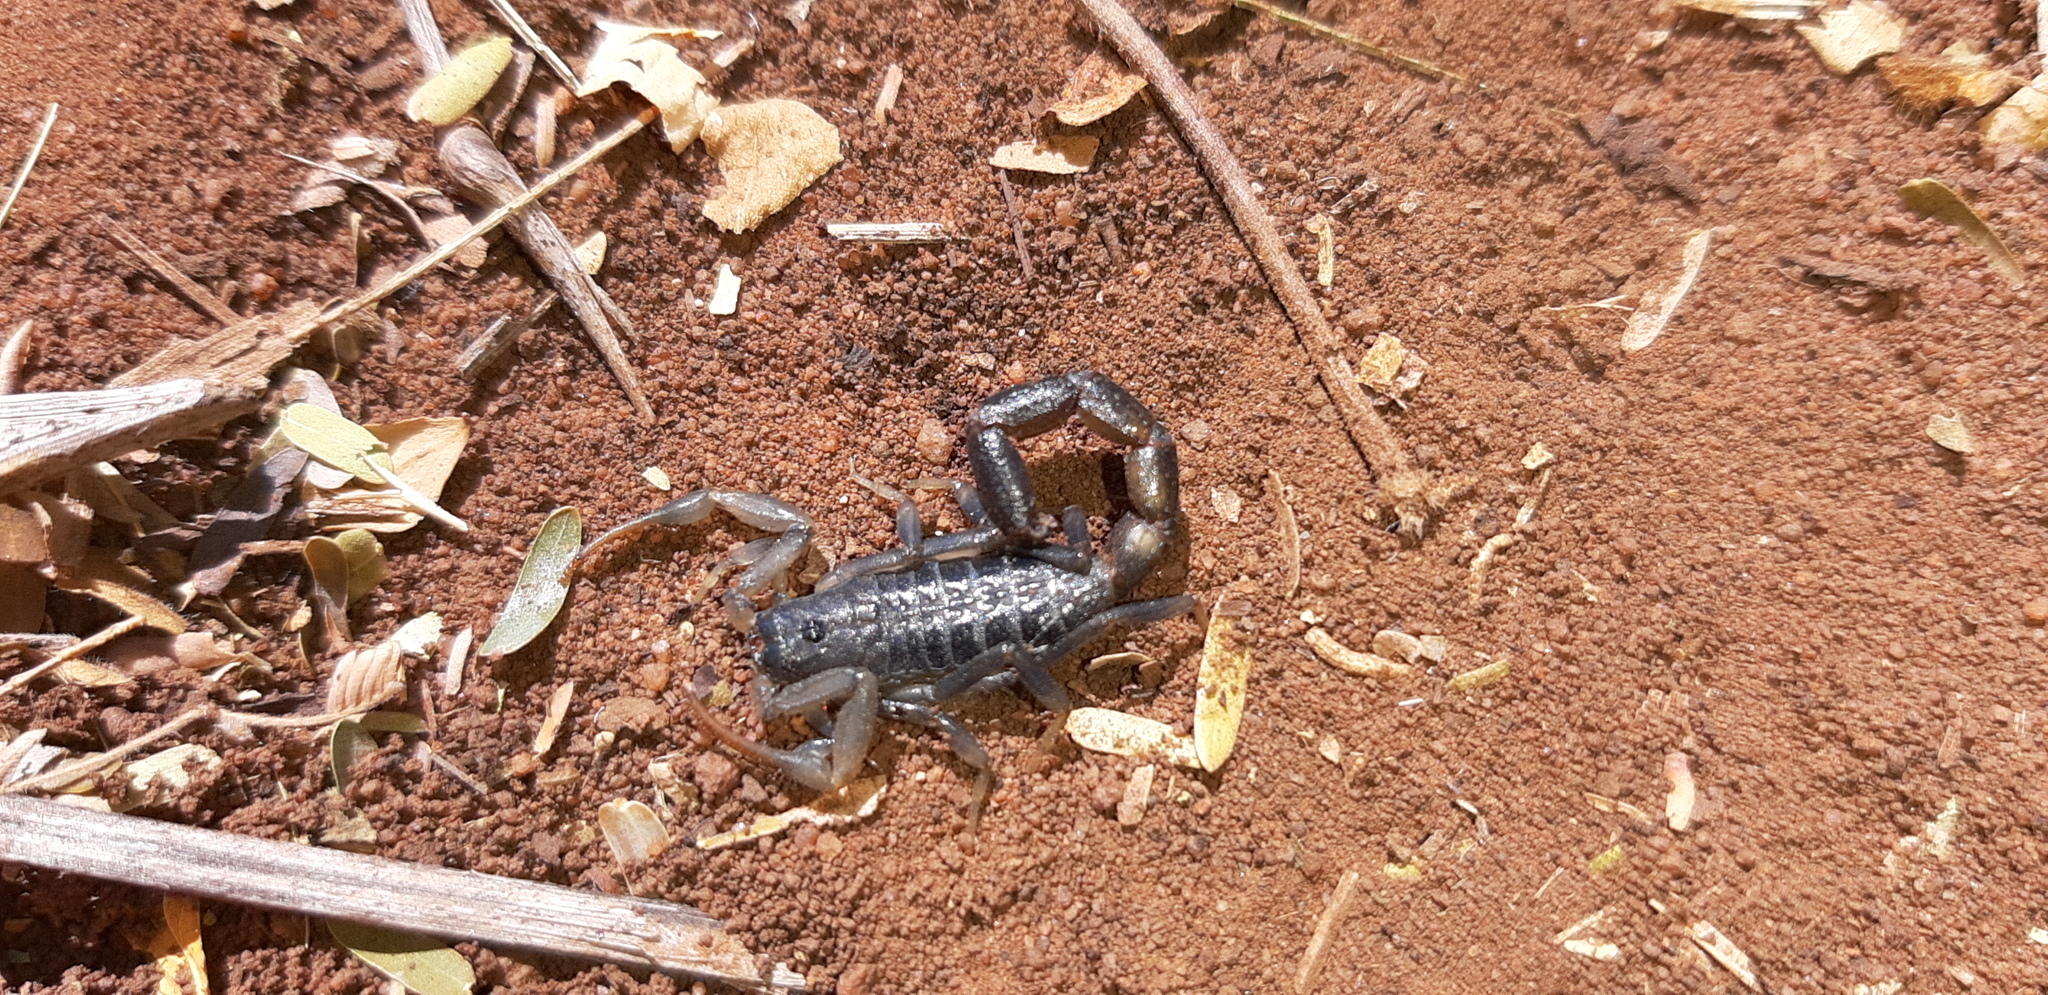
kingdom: Animalia
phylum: Arthropoda
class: Arachnida
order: Scorpiones
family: Buthidae
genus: Uroplectes
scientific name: Uroplectes flavoviridis
